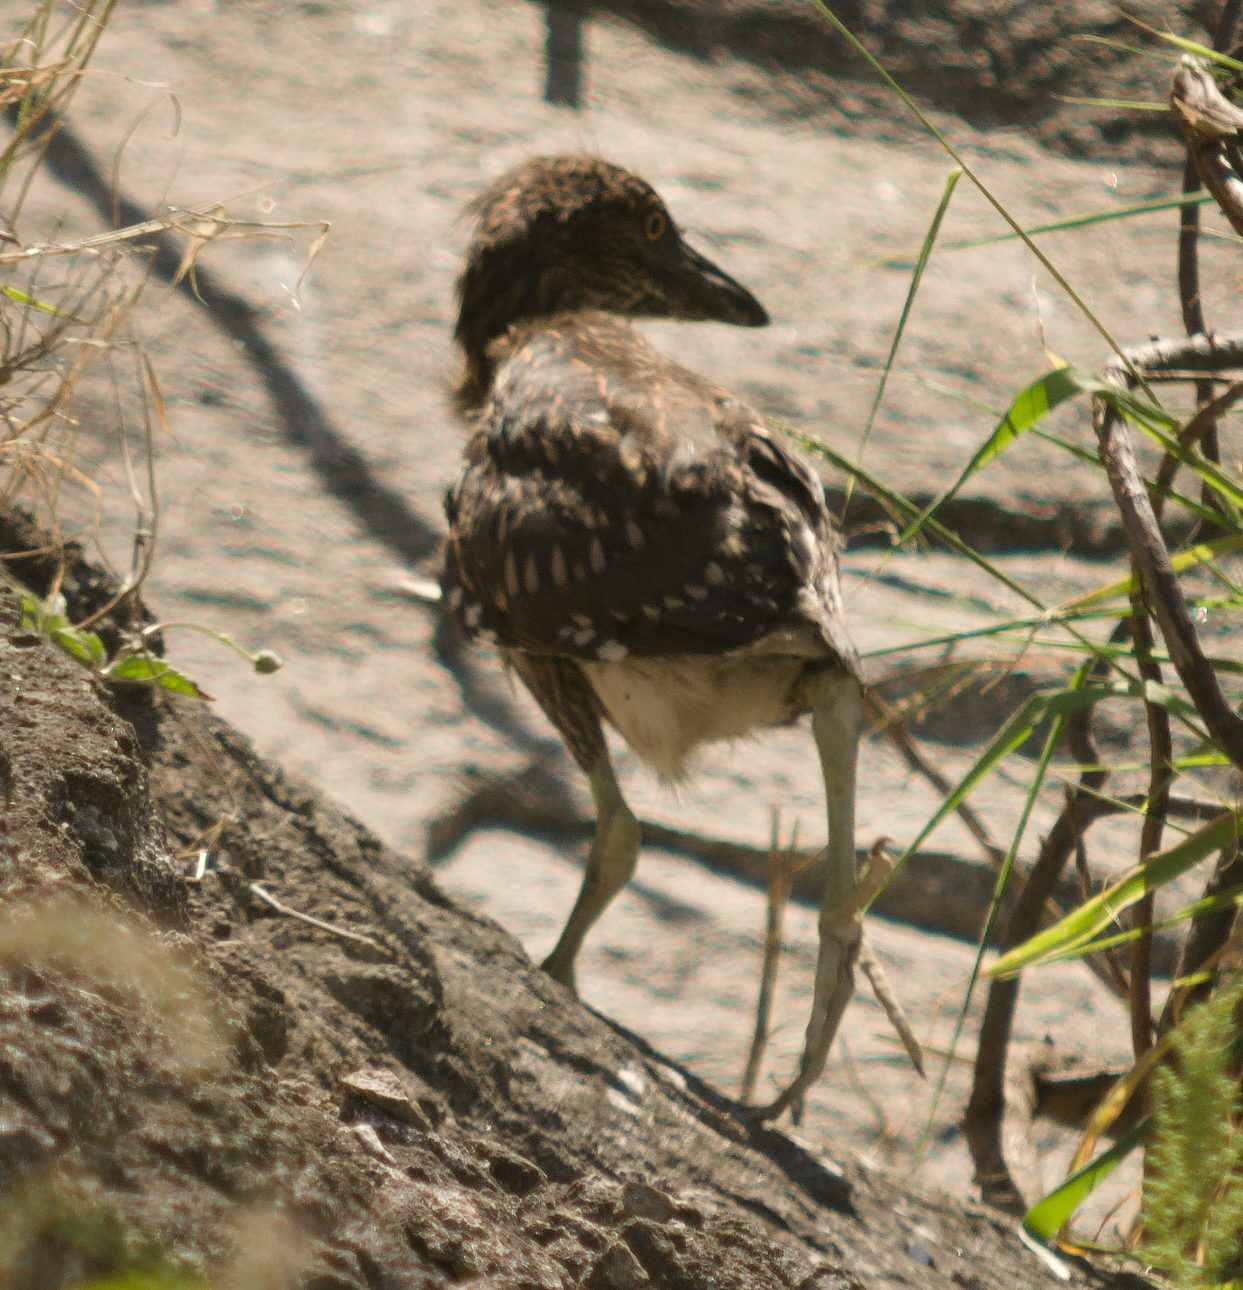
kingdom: Animalia
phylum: Chordata
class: Aves
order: Pelecaniformes
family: Ardeidae
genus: Nycticorax
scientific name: Nycticorax nycticorax
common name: Black-crowned night heron
